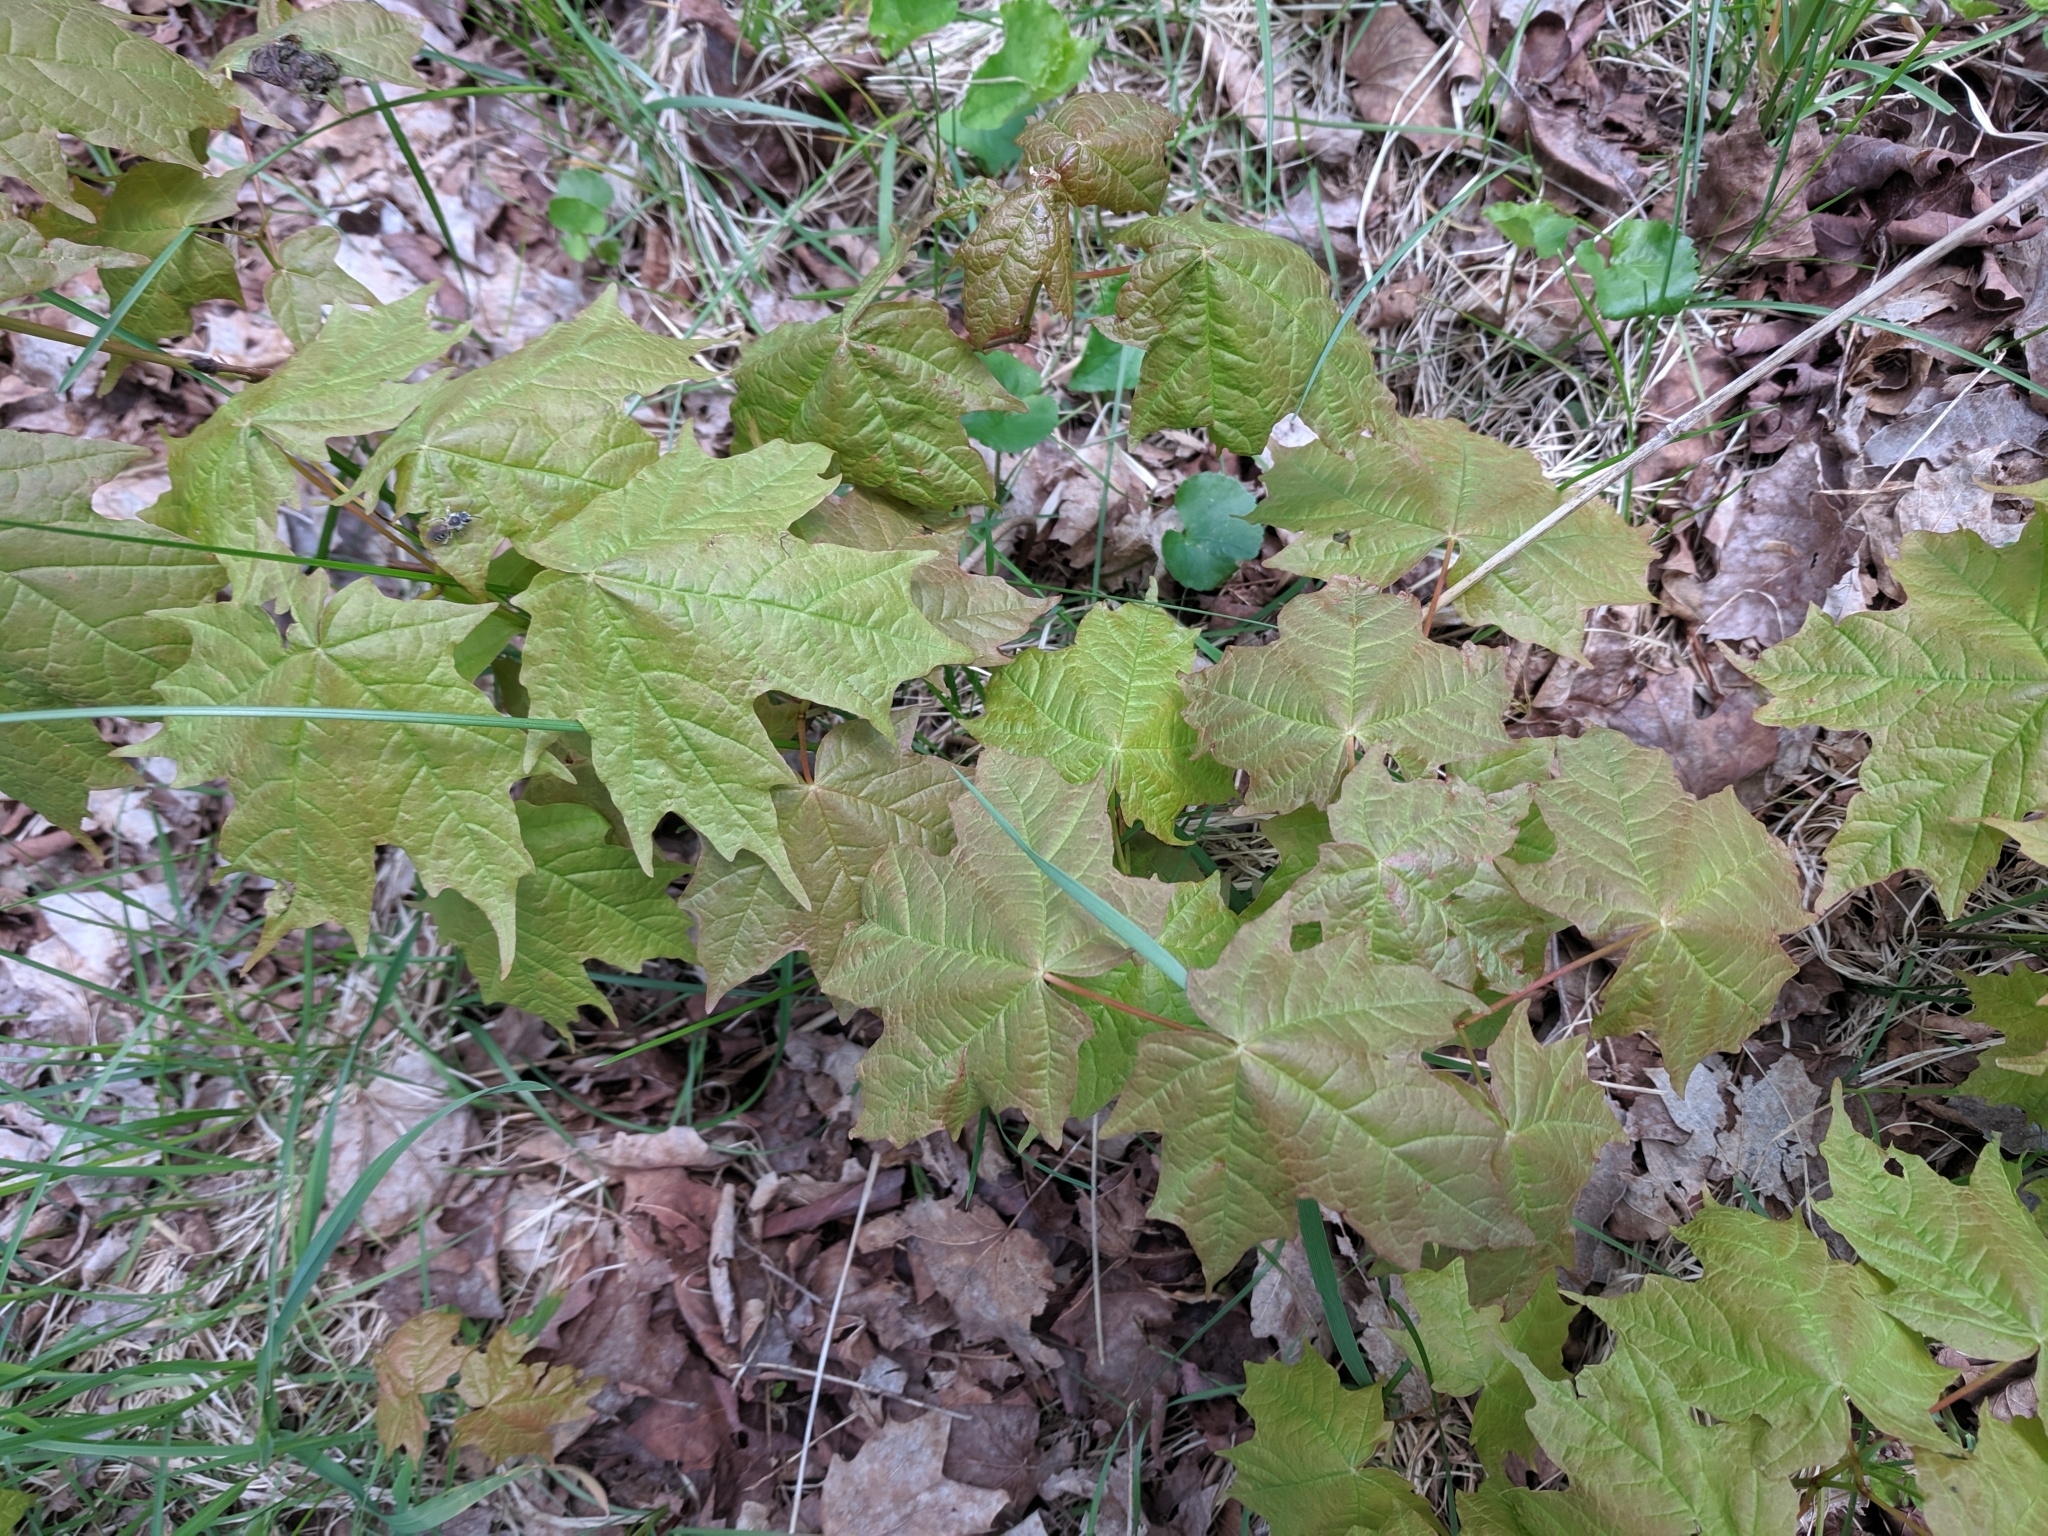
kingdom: Plantae
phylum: Tracheophyta
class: Magnoliopsida
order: Sapindales
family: Sapindaceae
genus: Acer
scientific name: Acer saccharum
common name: Sugar maple
